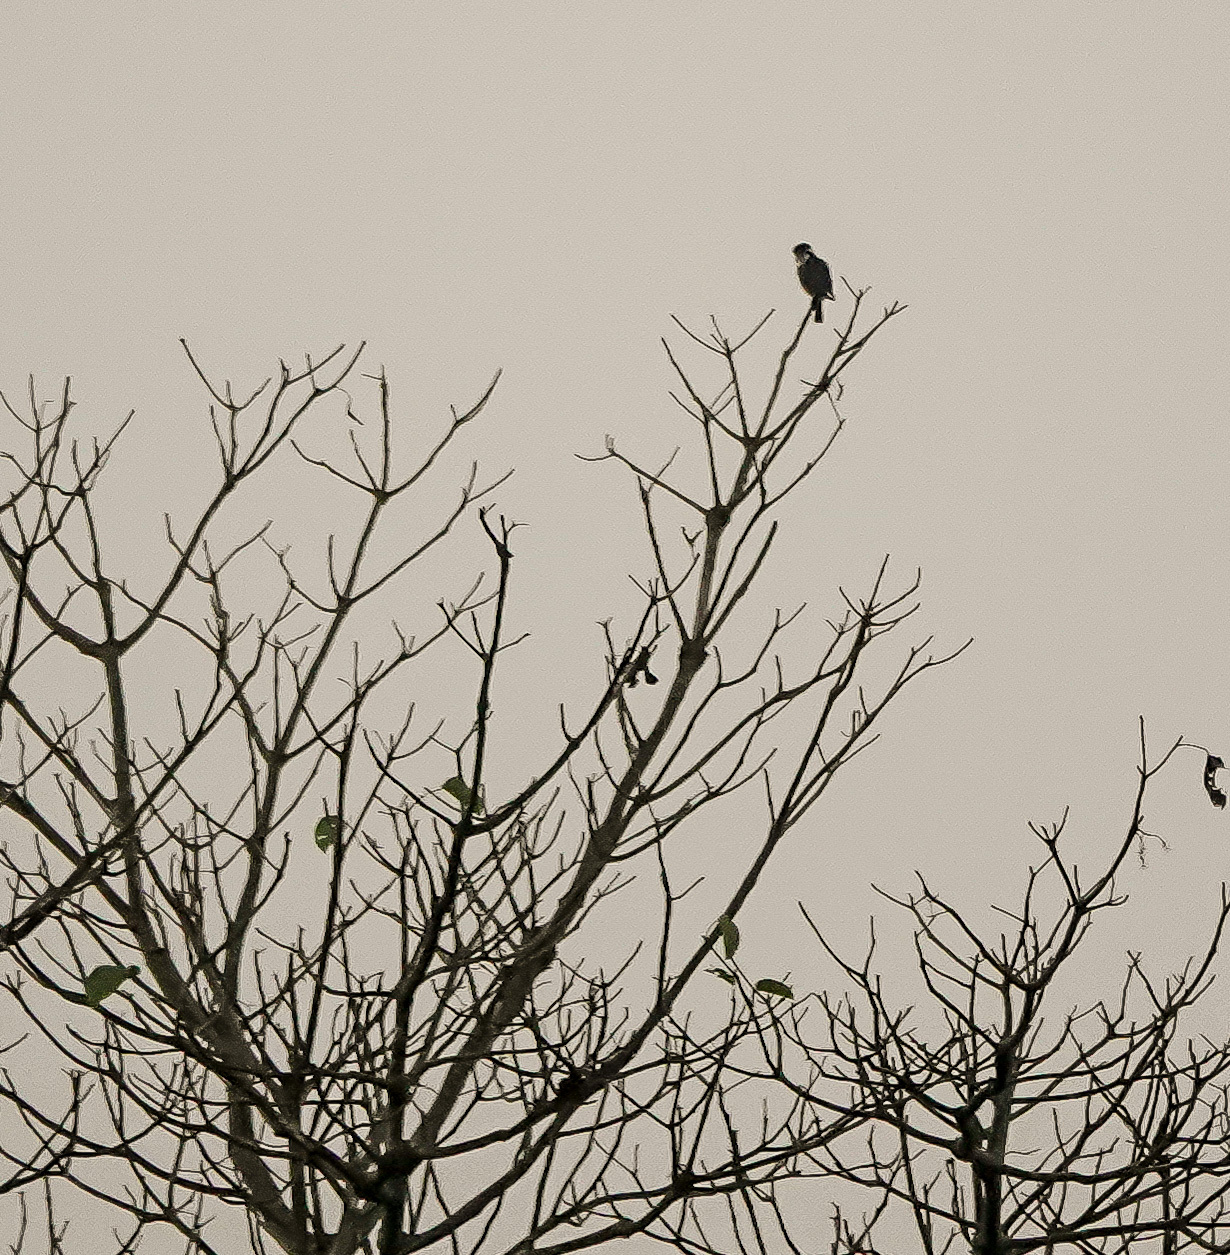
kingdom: Animalia
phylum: Chordata
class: Aves
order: Falconiformes
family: Falconidae
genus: Microhierax
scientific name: Microhierax fringillarius
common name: Black-thighed falconet
